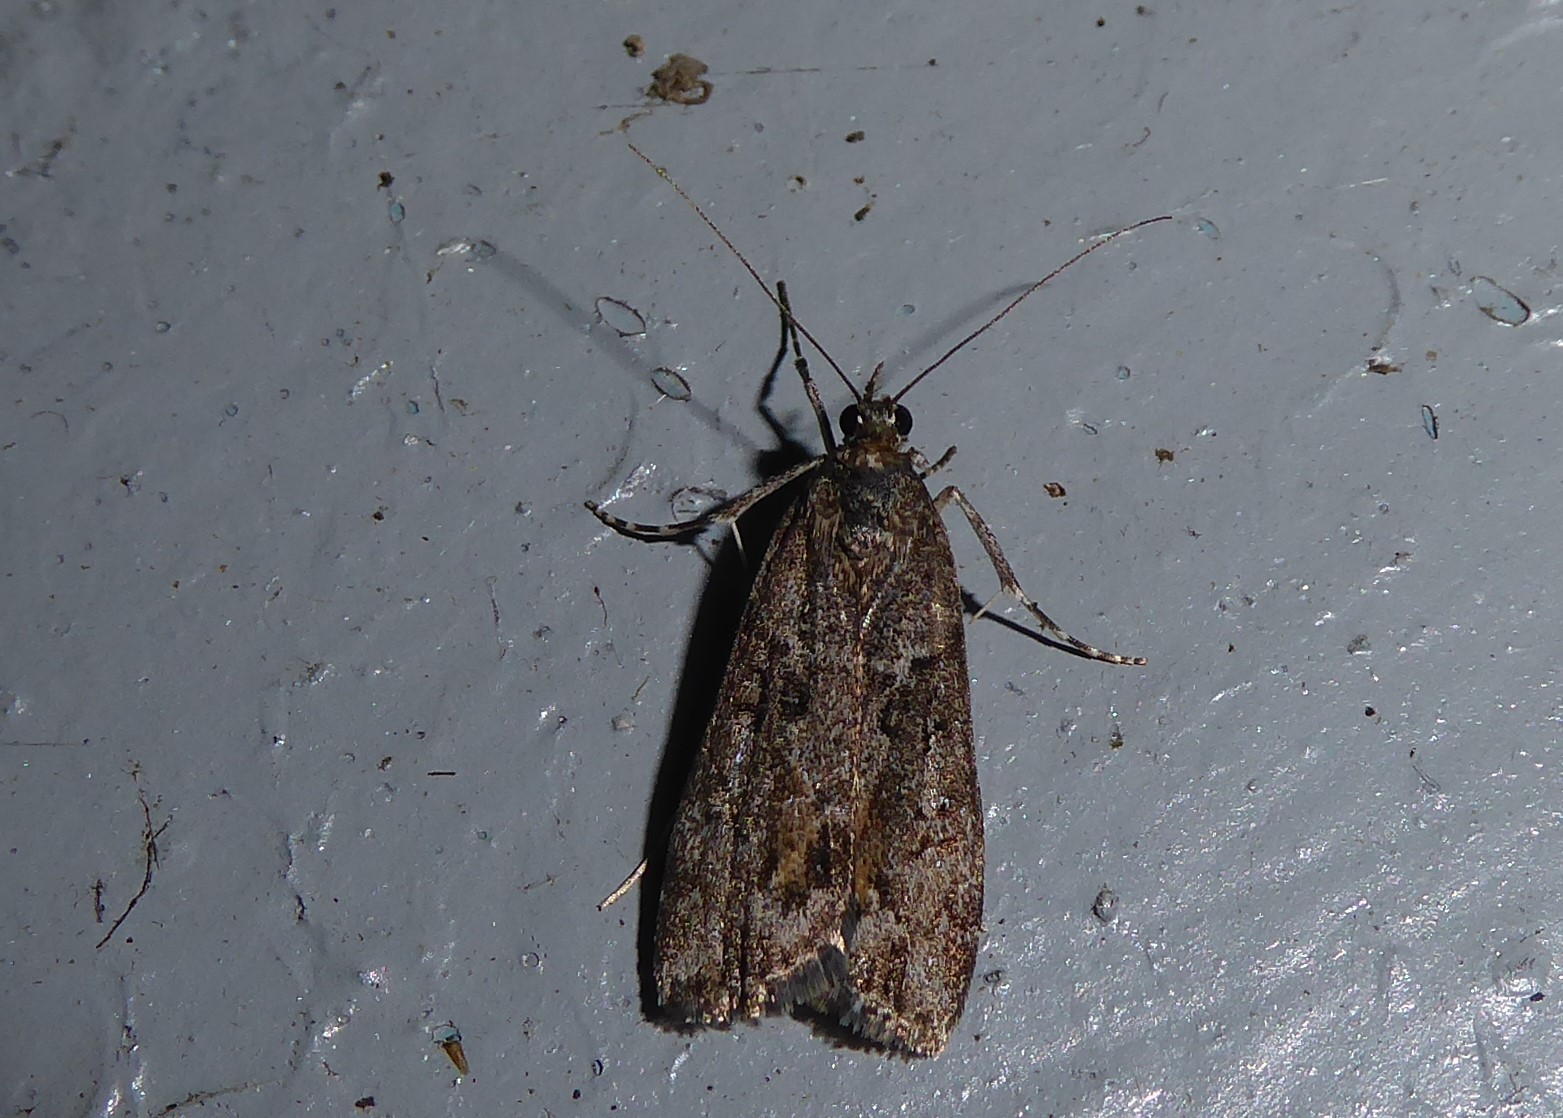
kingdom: Animalia
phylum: Arthropoda
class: Insecta
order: Lepidoptera
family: Crambidae
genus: Eudonia
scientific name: Eudonia submarginalis
